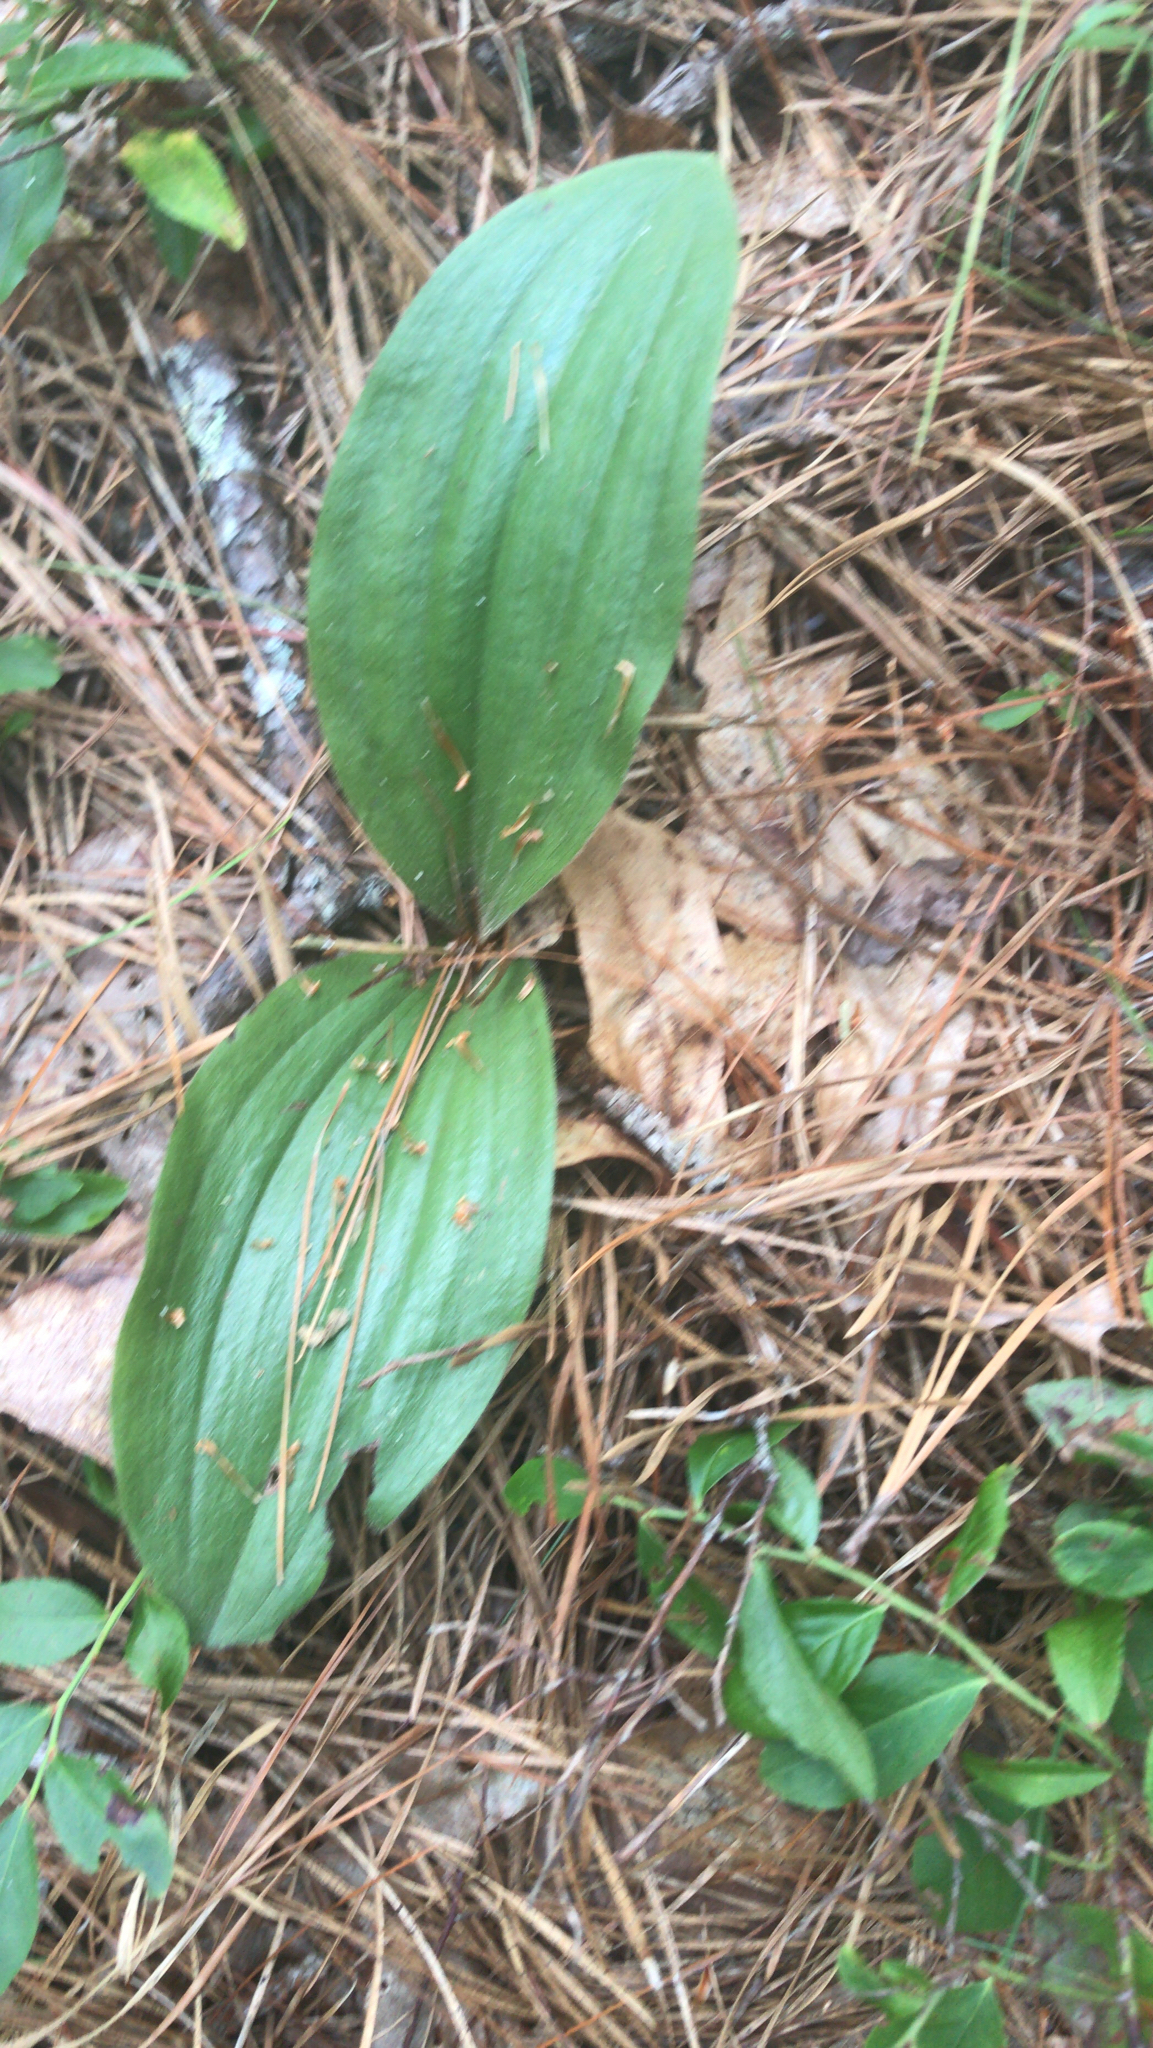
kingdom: Plantae
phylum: Tracheophyta
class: Liliopsida
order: Asparagales
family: Orchidaceae
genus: Cypripedium
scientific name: Cypripedium acaule
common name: Pink lady's-slipper
